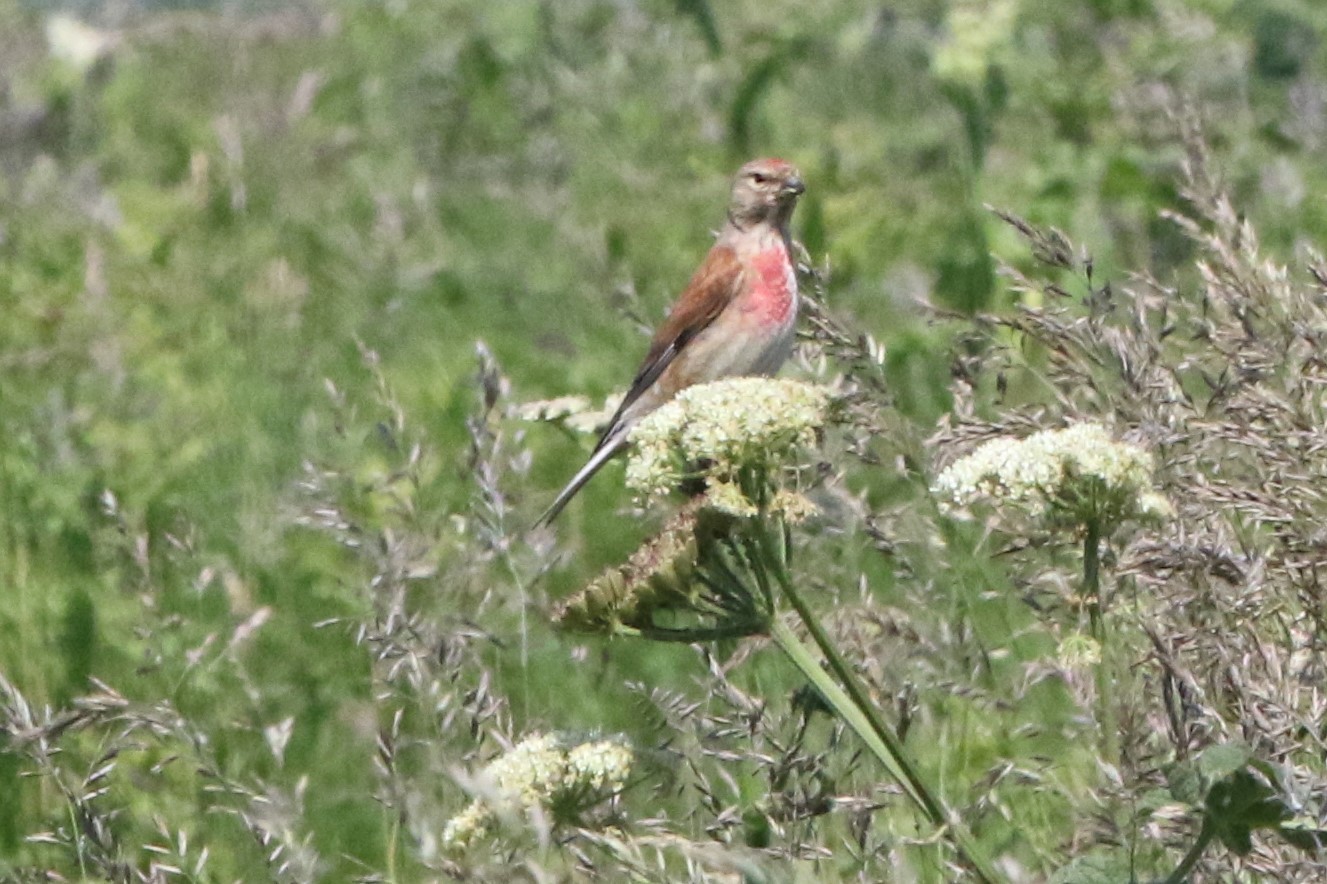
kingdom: Animalia
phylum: Chordata
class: Aves
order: Passeriformes
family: Fringillidae
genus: Linaria
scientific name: Linaria cannabina
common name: Common linnet
